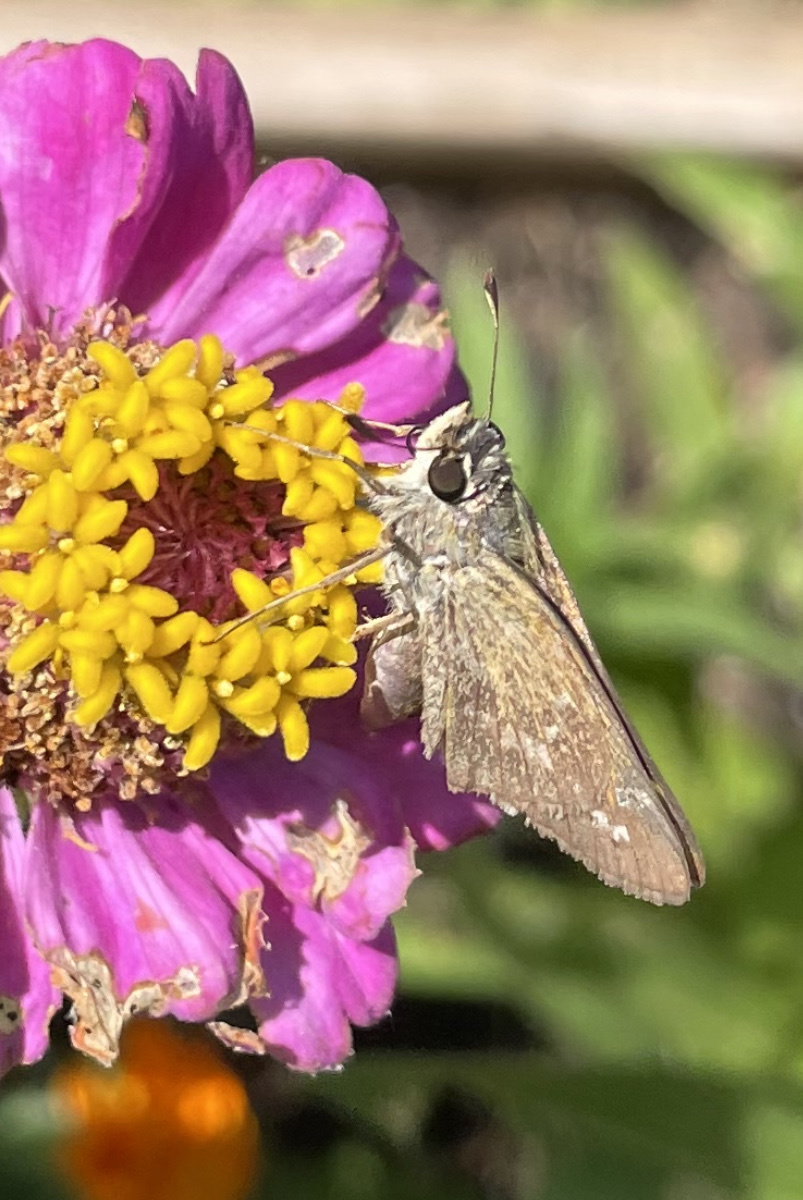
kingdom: Animalia
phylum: Arthropoda
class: Insecta
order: Lepidoptera
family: Hesperiidae
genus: Atalopedes
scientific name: Atalopedes
